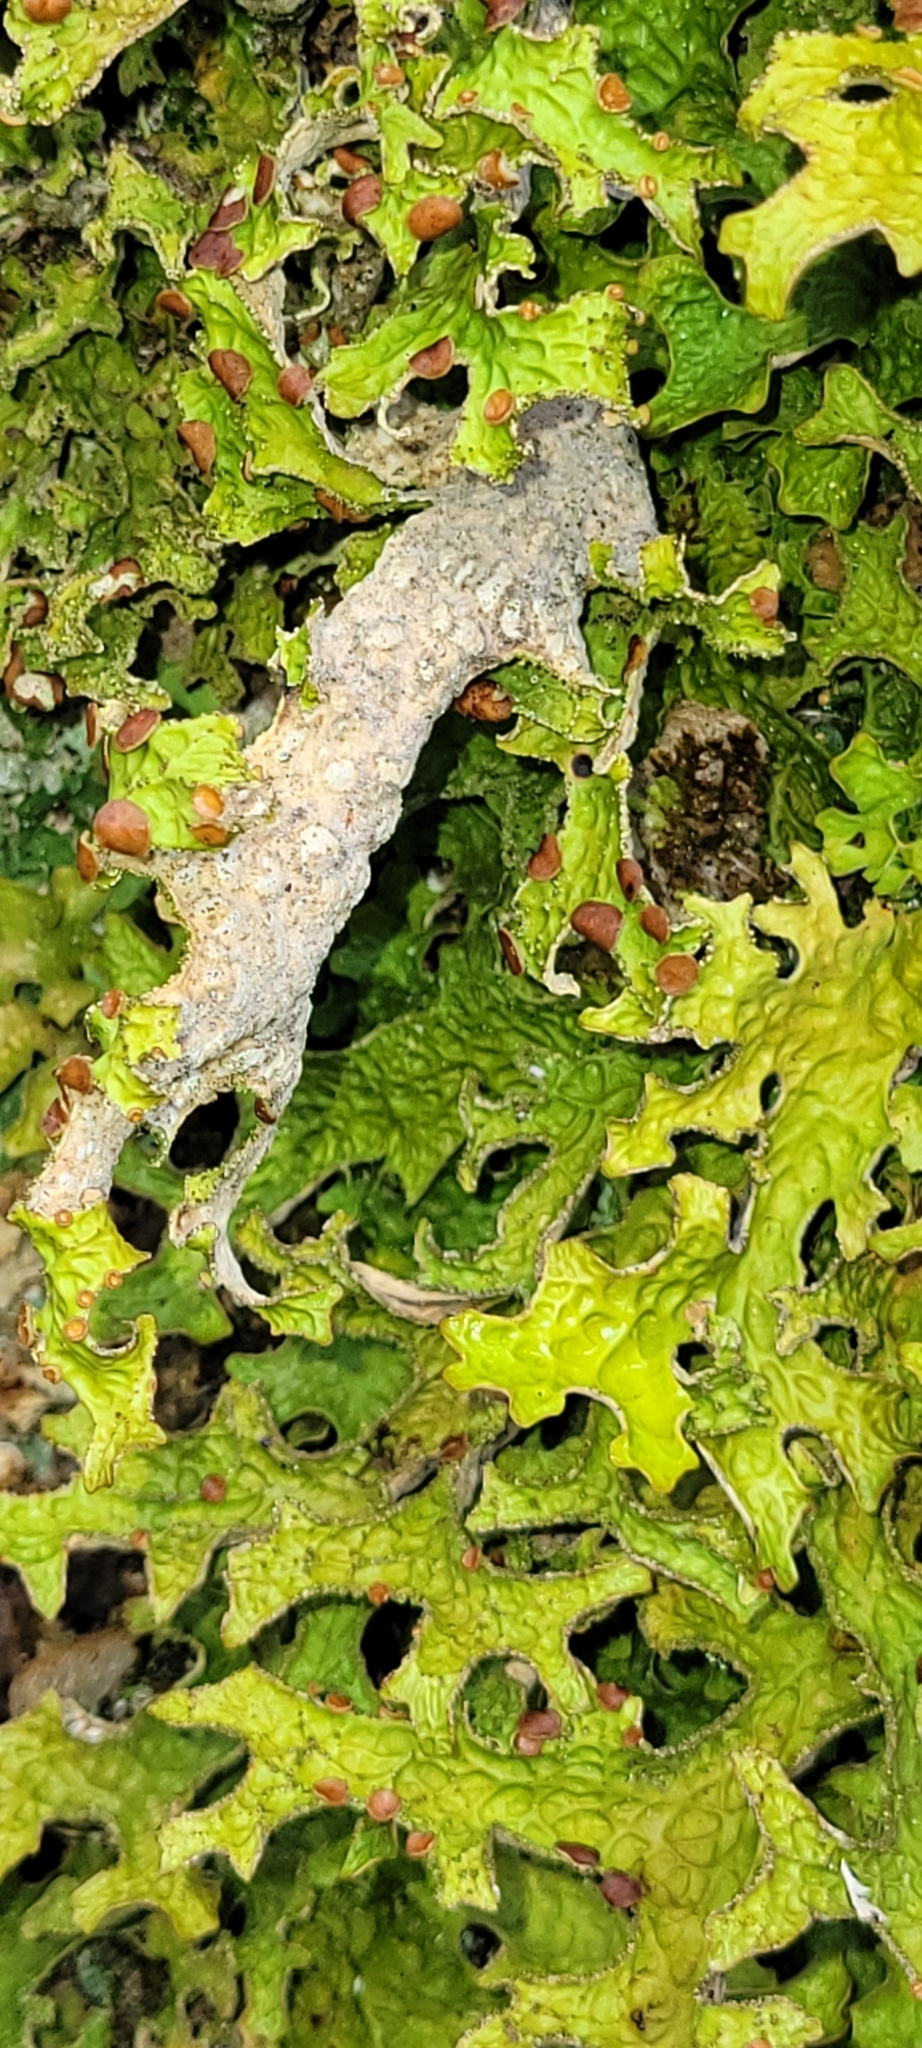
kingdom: Fungi
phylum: Ascomycota
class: Lecanoromycetes
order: Peltigerales
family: Lobariaceae
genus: Lobaria
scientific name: Lobaria pulmonaria
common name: Lungwort
